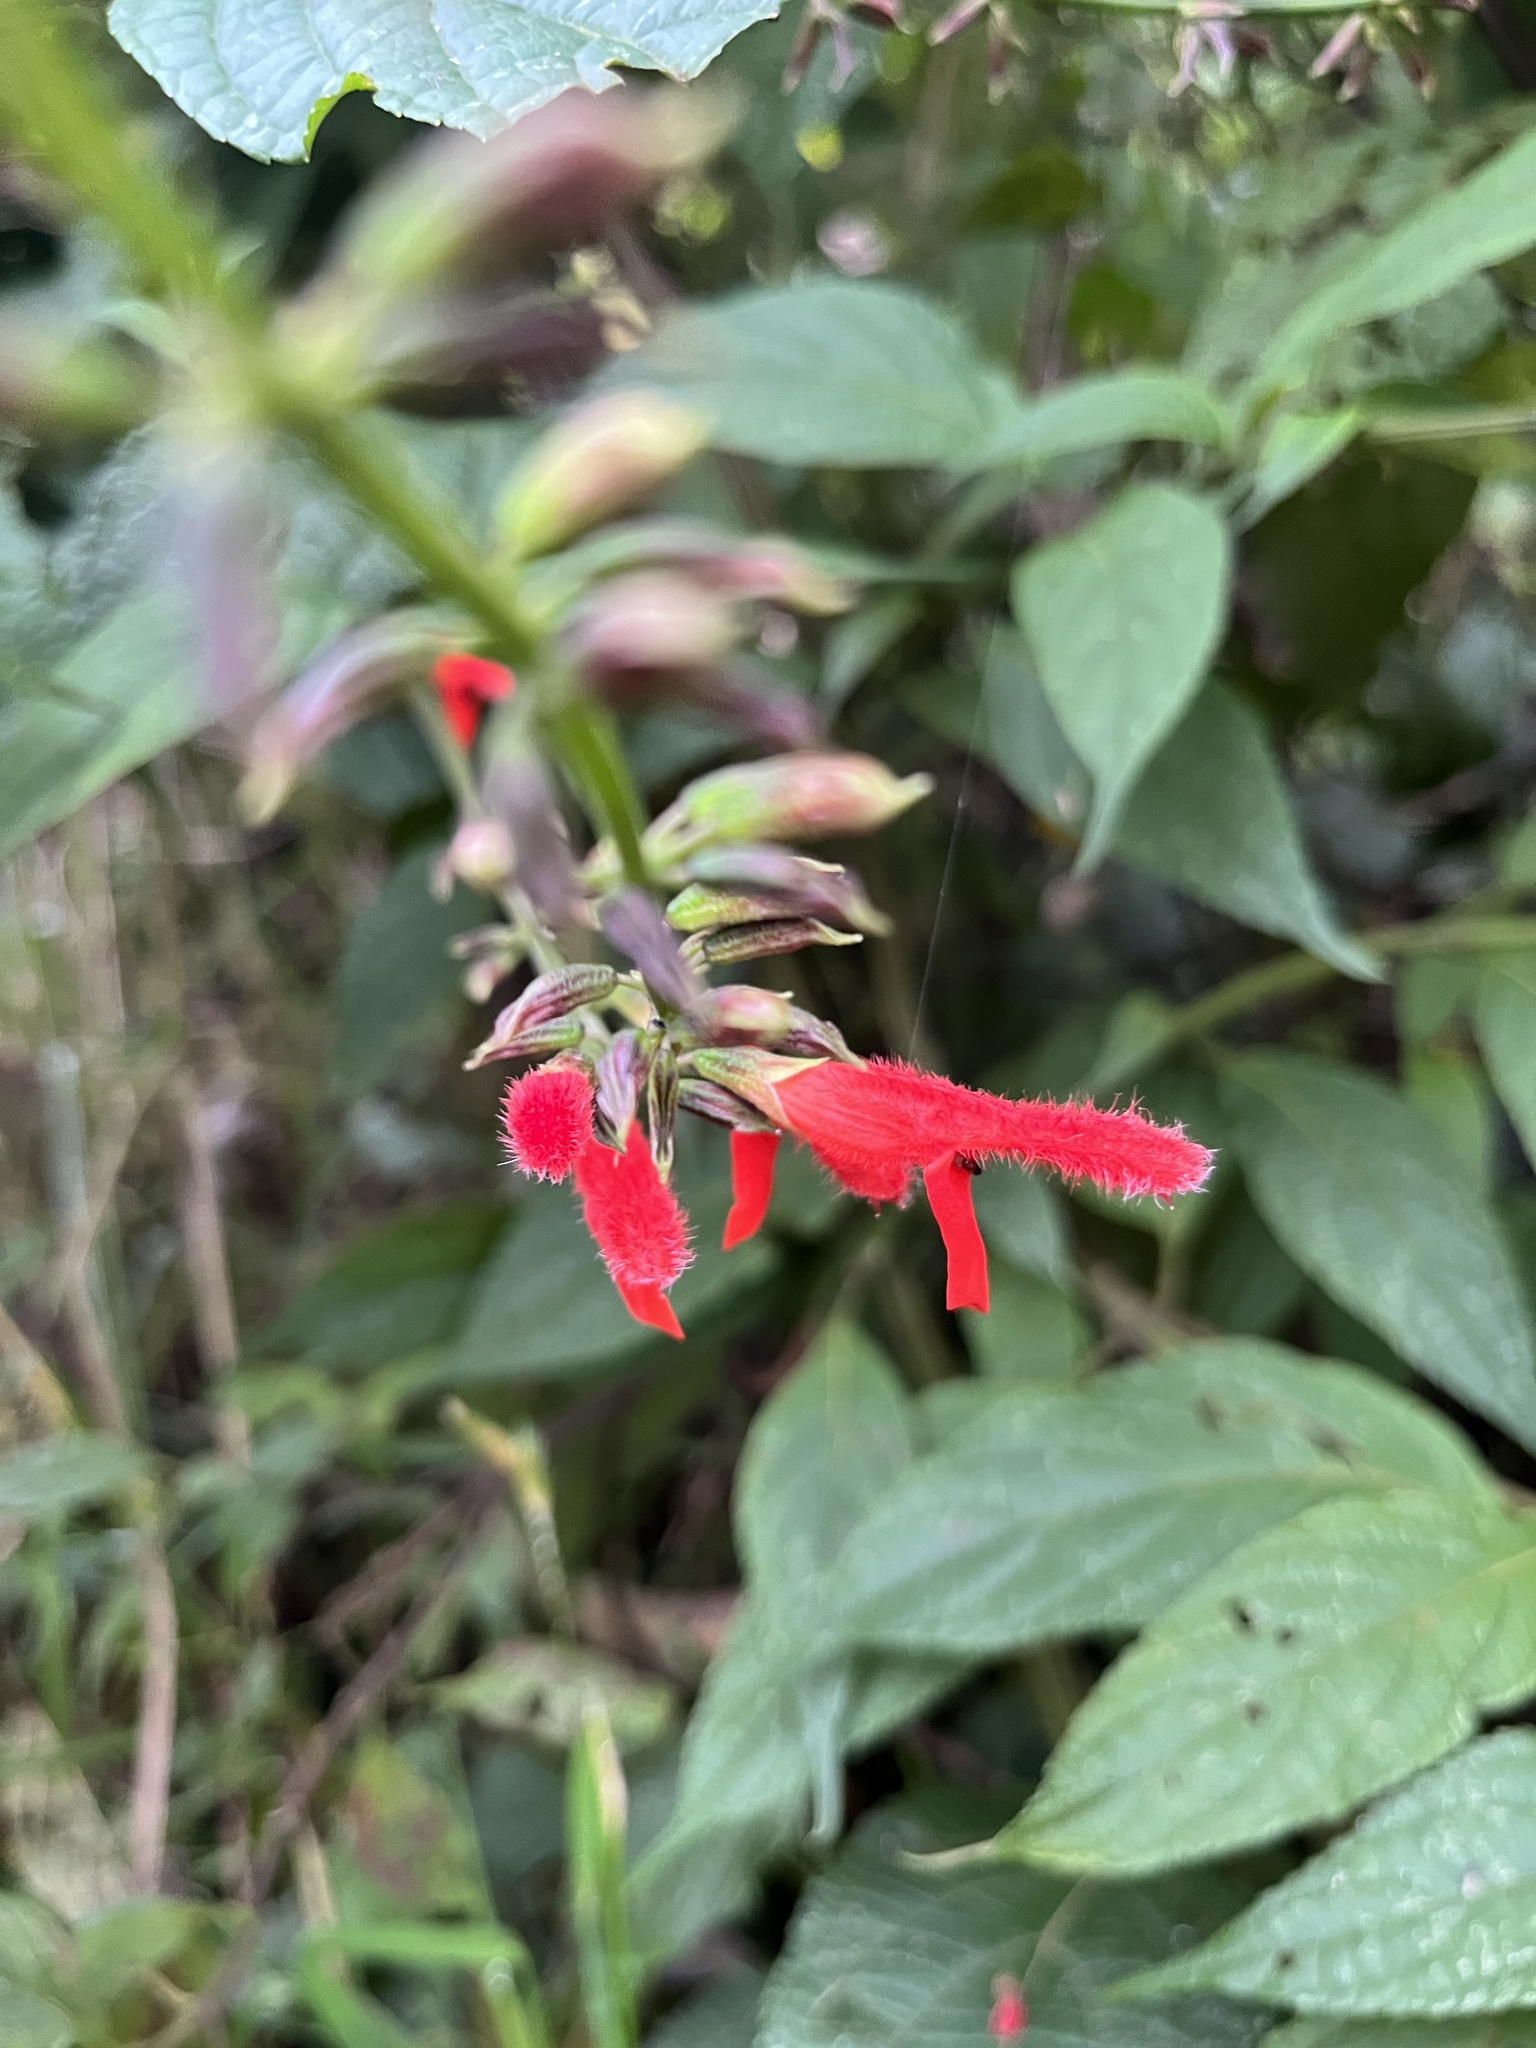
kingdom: Plantae
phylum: Tracheophyta
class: Magnoliopsida
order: Lamiales
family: Lamiaceae
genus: Salvia
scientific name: Salvia rufula
